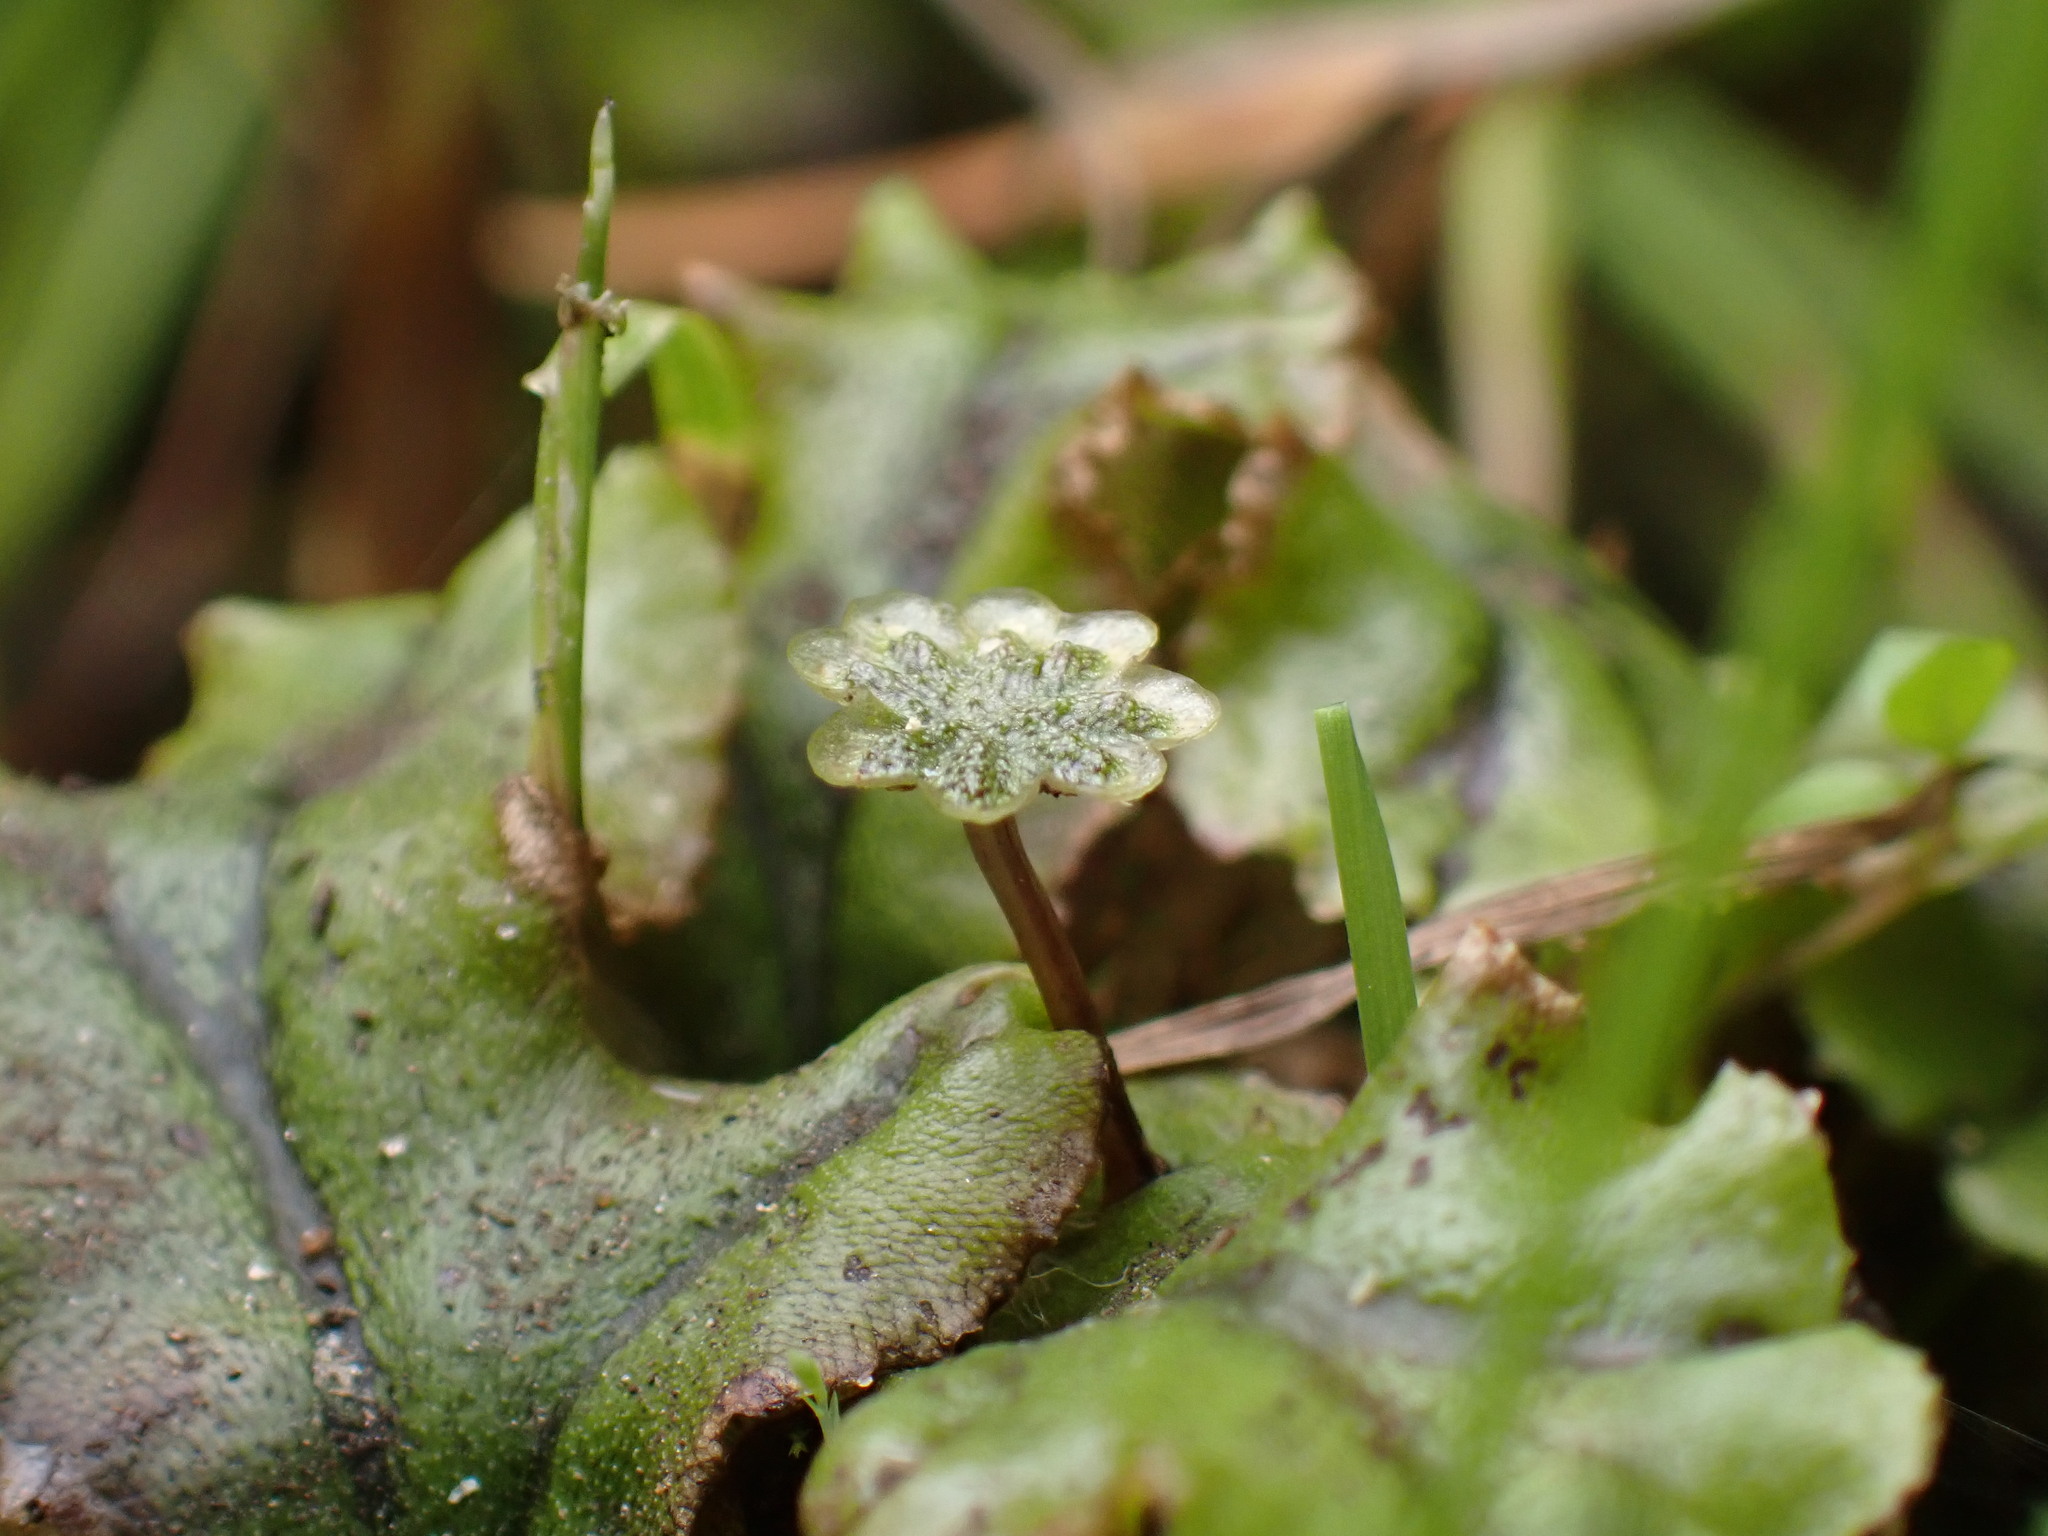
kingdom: Plantae
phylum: Marchantiophyta
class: Marchantiopsida
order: Marchantiales
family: Marchantiaceae
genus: Marchantia
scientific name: Marchantia polymorpha
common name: Common liverwort
